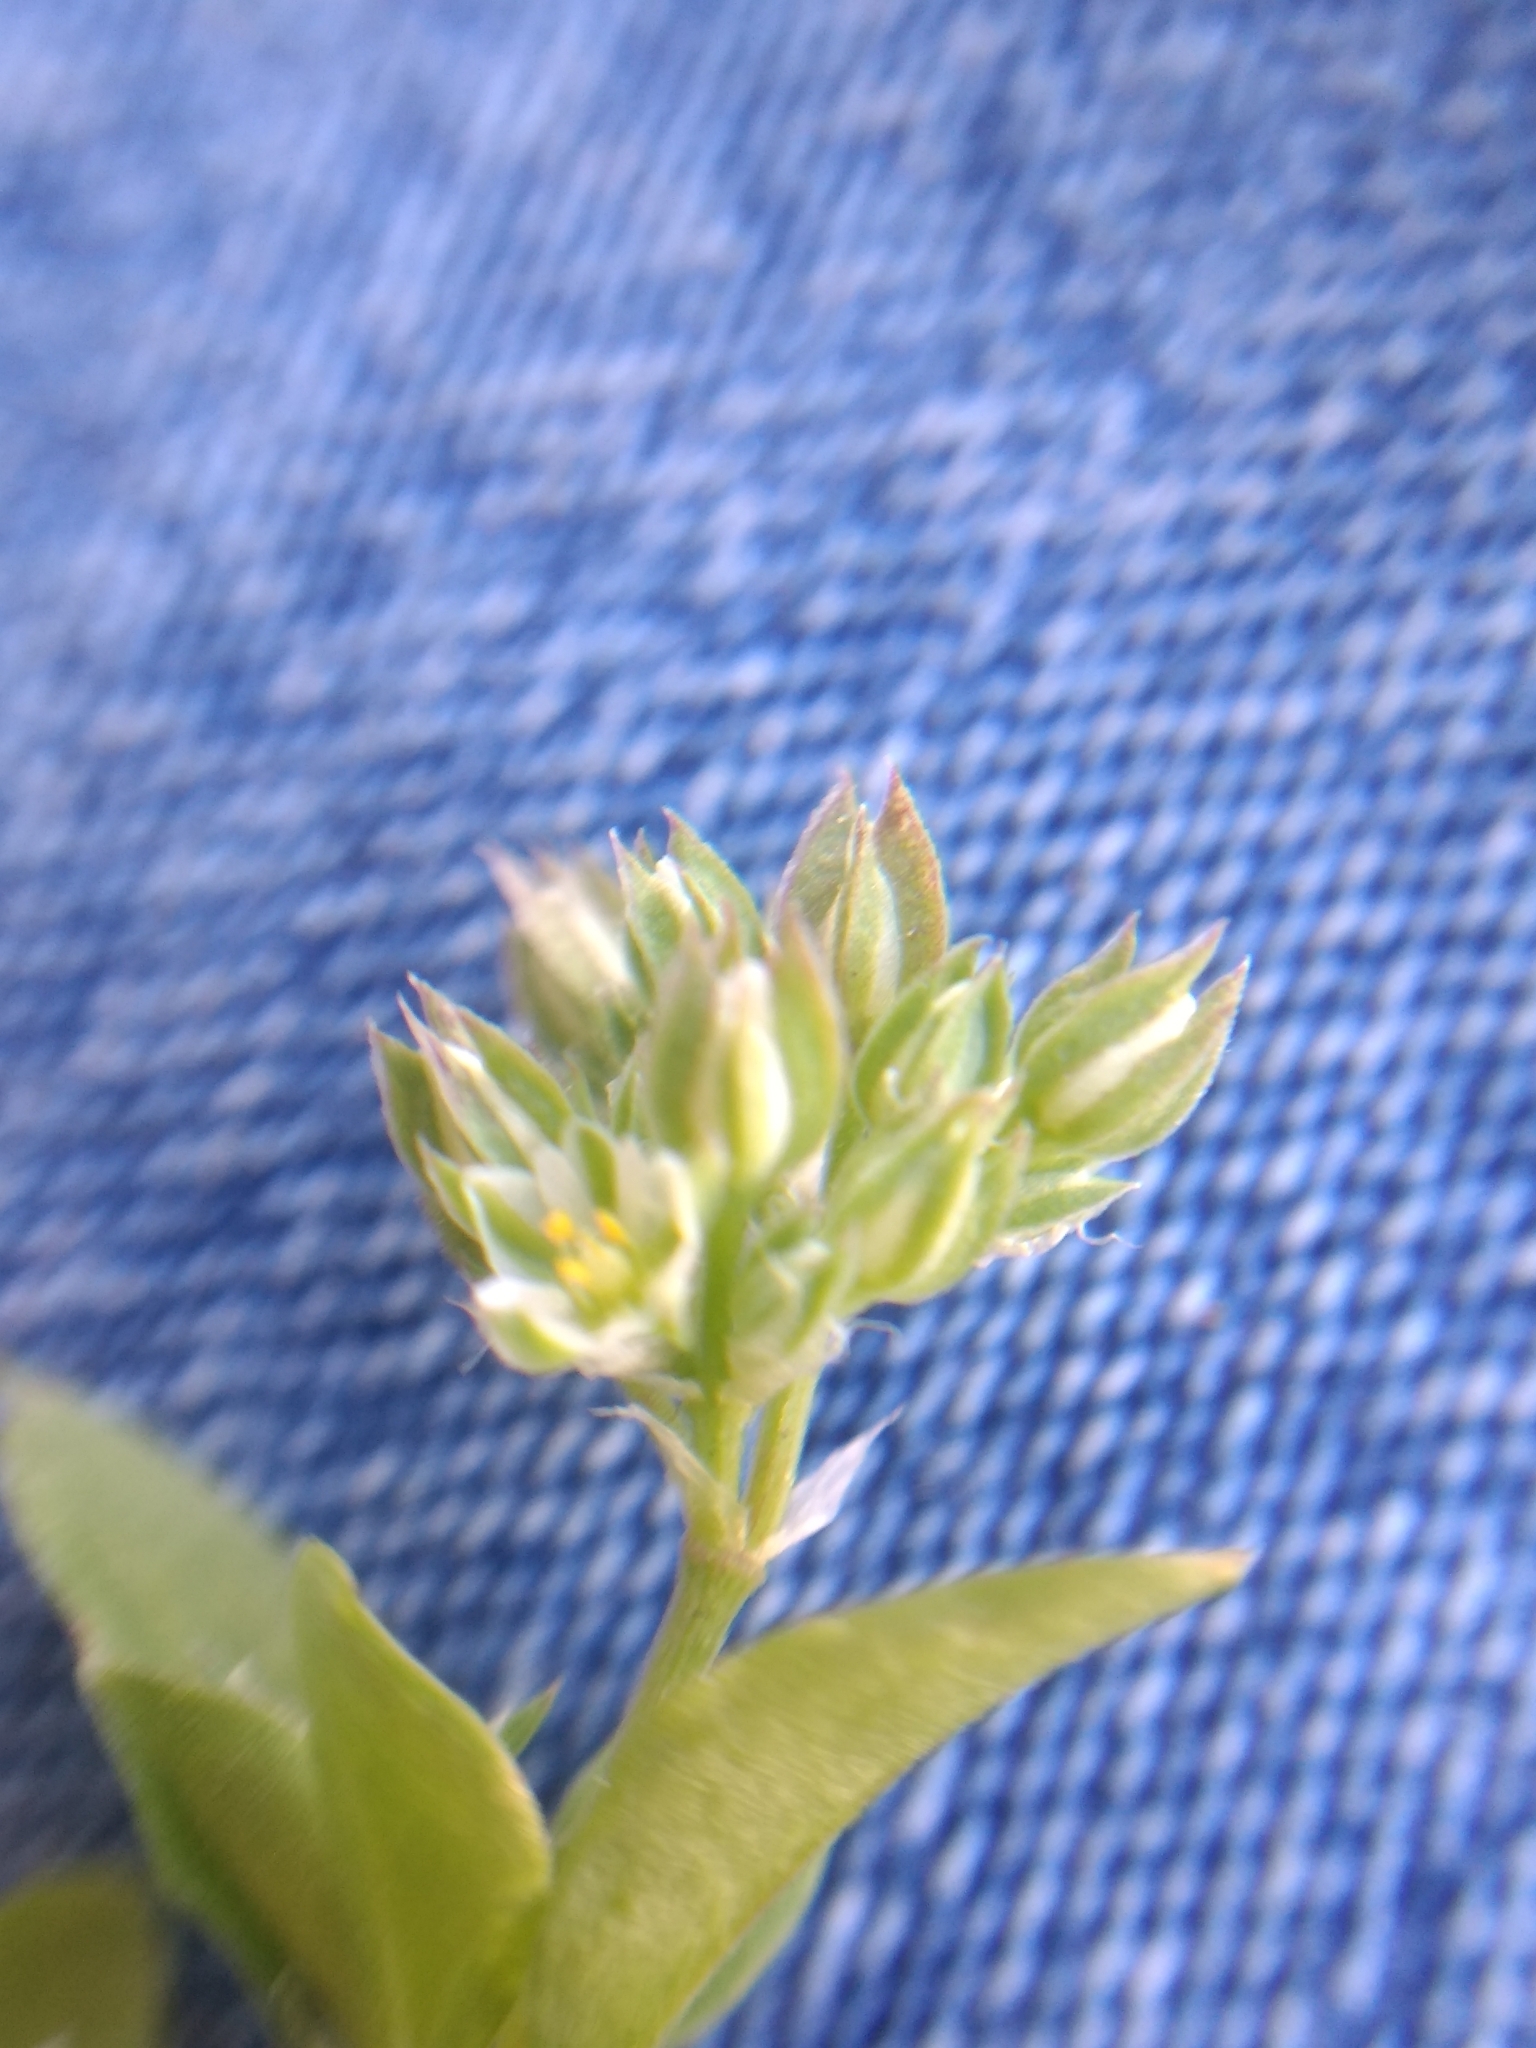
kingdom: Plantae
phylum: Tracheophyta
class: Magnoliopsida
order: Caryophyllales
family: Caryophyllaceae
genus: Polycarpon
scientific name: Polycarpon tetraphyllum
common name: Four-leaved all-seed
